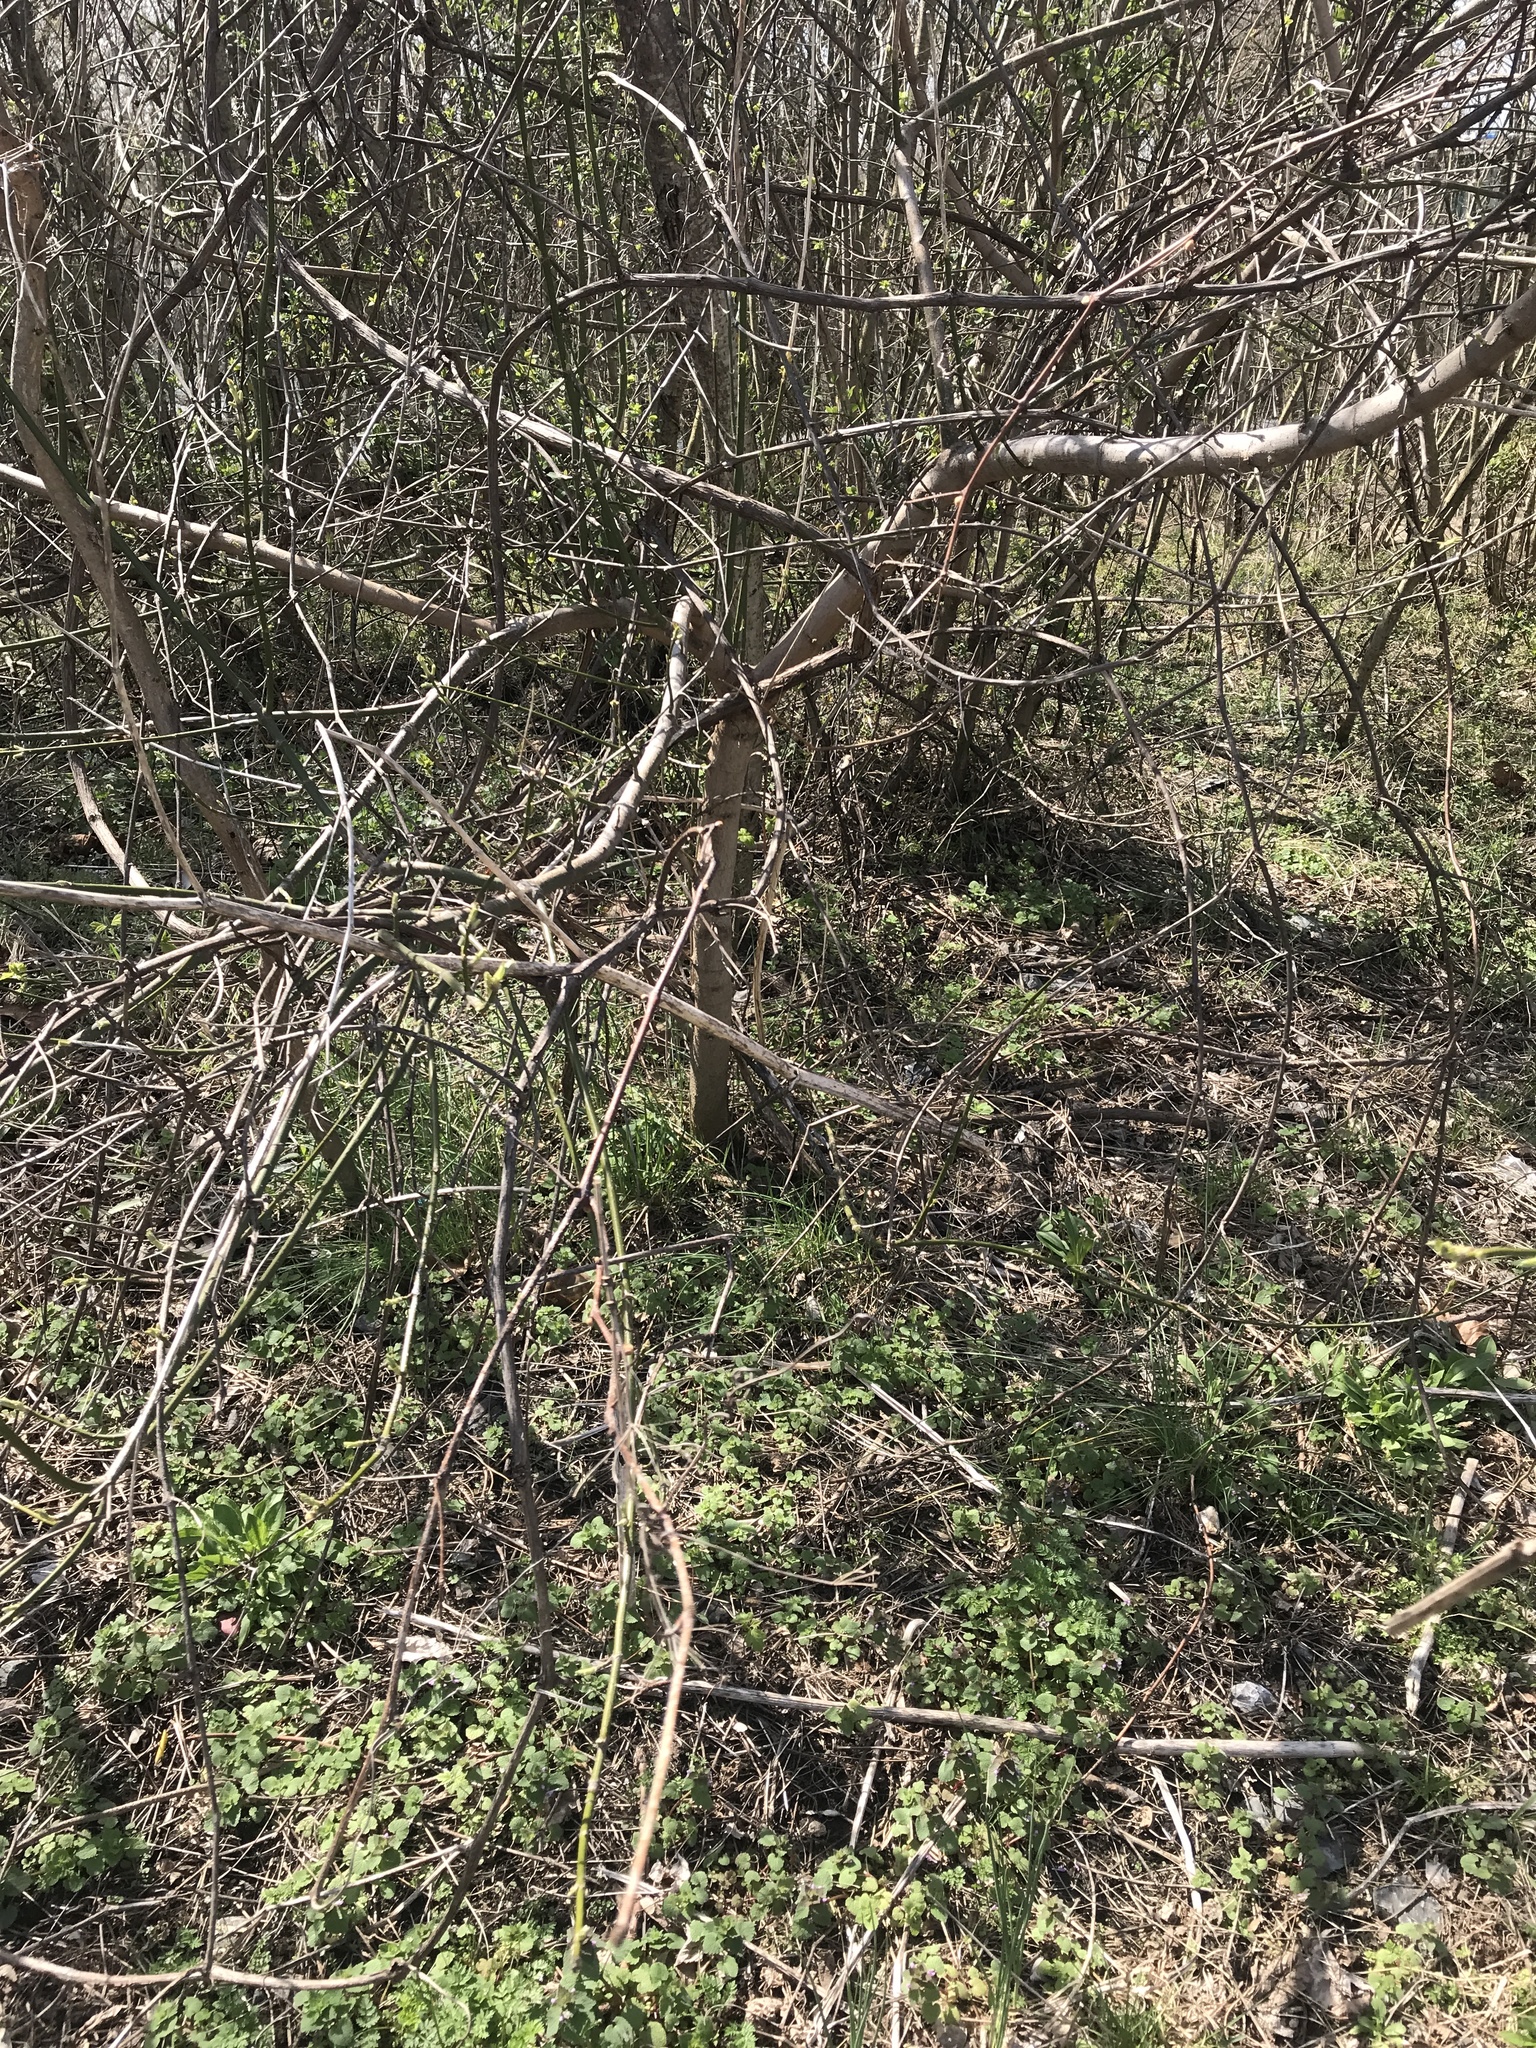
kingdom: Plantae
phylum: Tracheophyta
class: Magnoliopsida
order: Sapindales
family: Sapindaceae
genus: Acer
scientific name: Acer negundo
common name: Ashleaf maple
